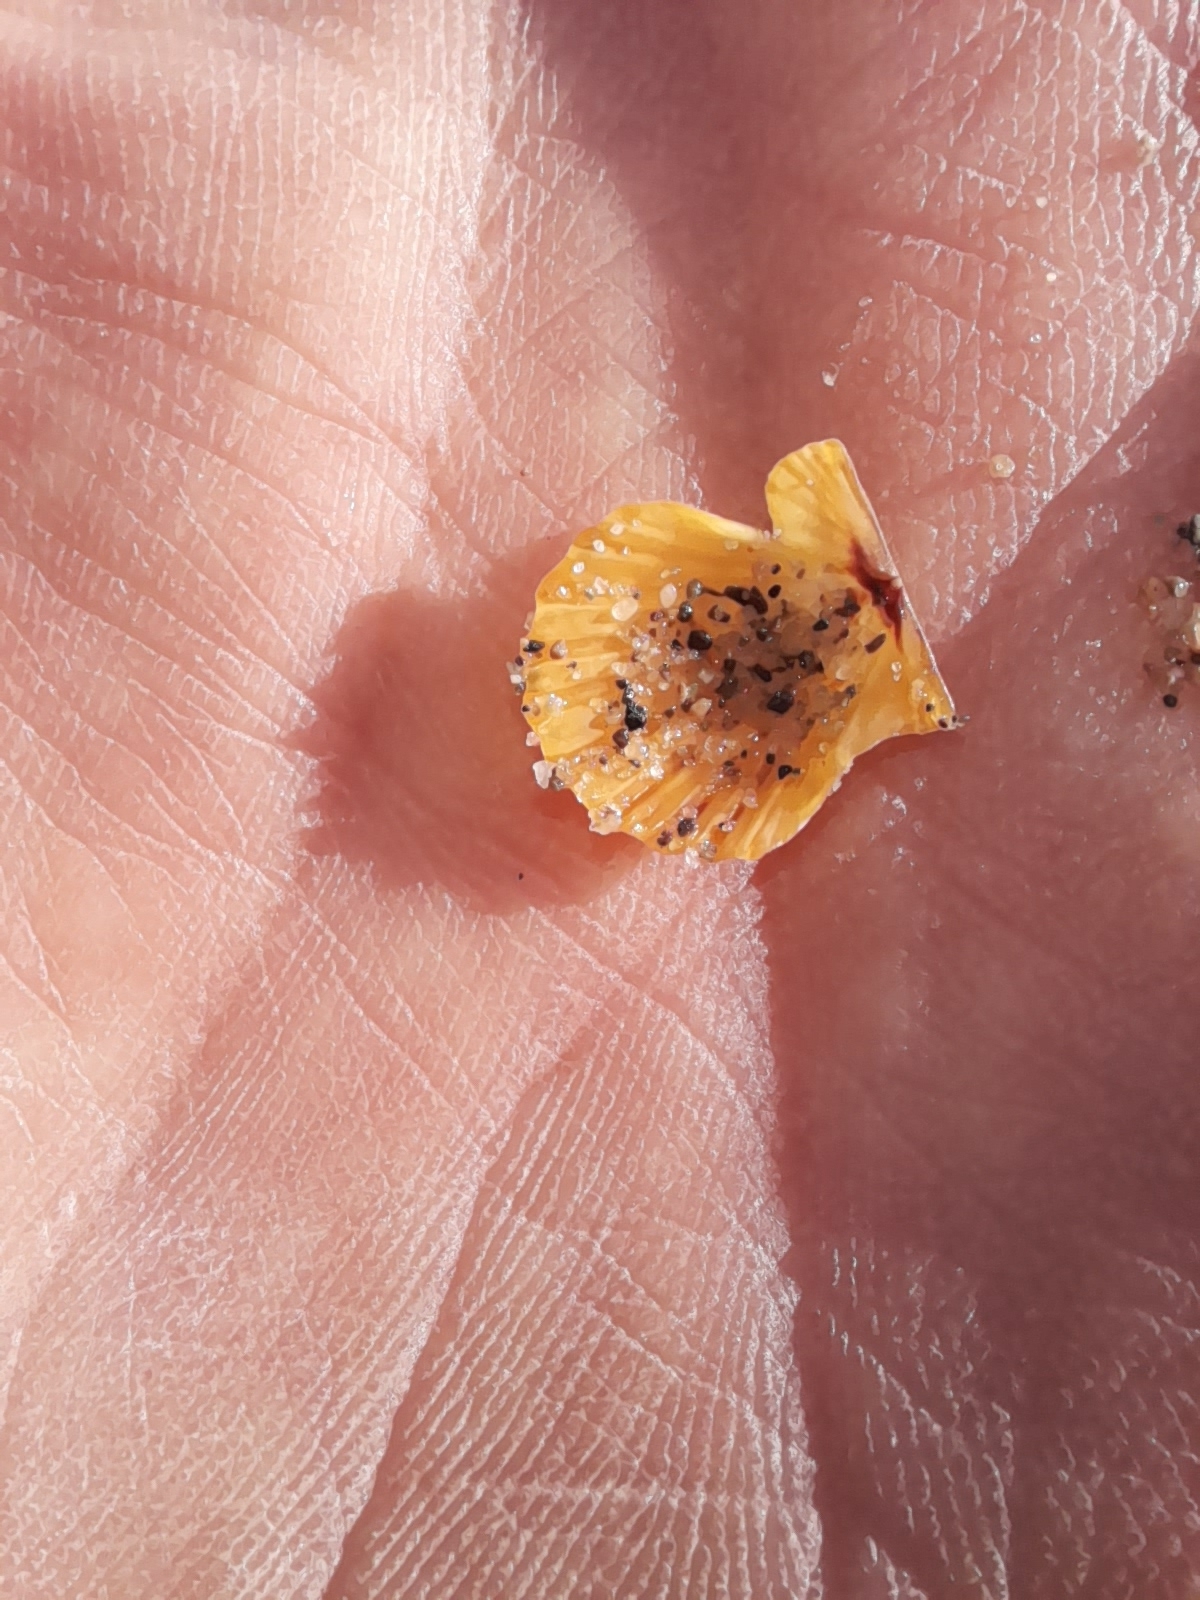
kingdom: Animalia
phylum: Mollusca
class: Bivalvia
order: Pectinida
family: Pectinidae
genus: Flexopecten
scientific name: Flexopecten glaber
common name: Smooth scallop
